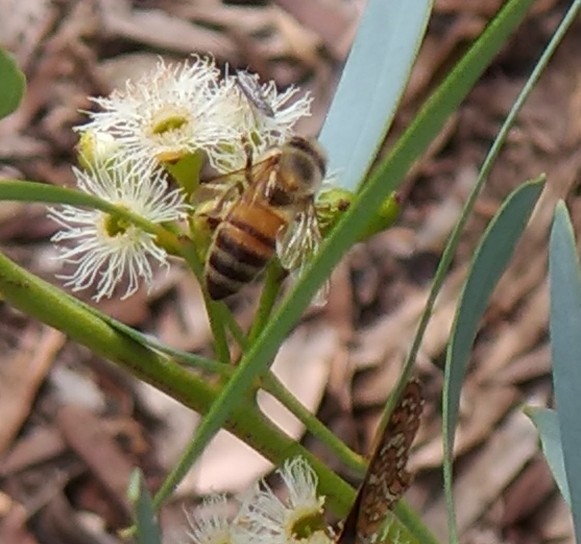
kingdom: Animalia
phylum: Arthropoda
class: Insecta
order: Hymenoptera
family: Apidae
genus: Apis
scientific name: Apis mellifera
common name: Honey bee
